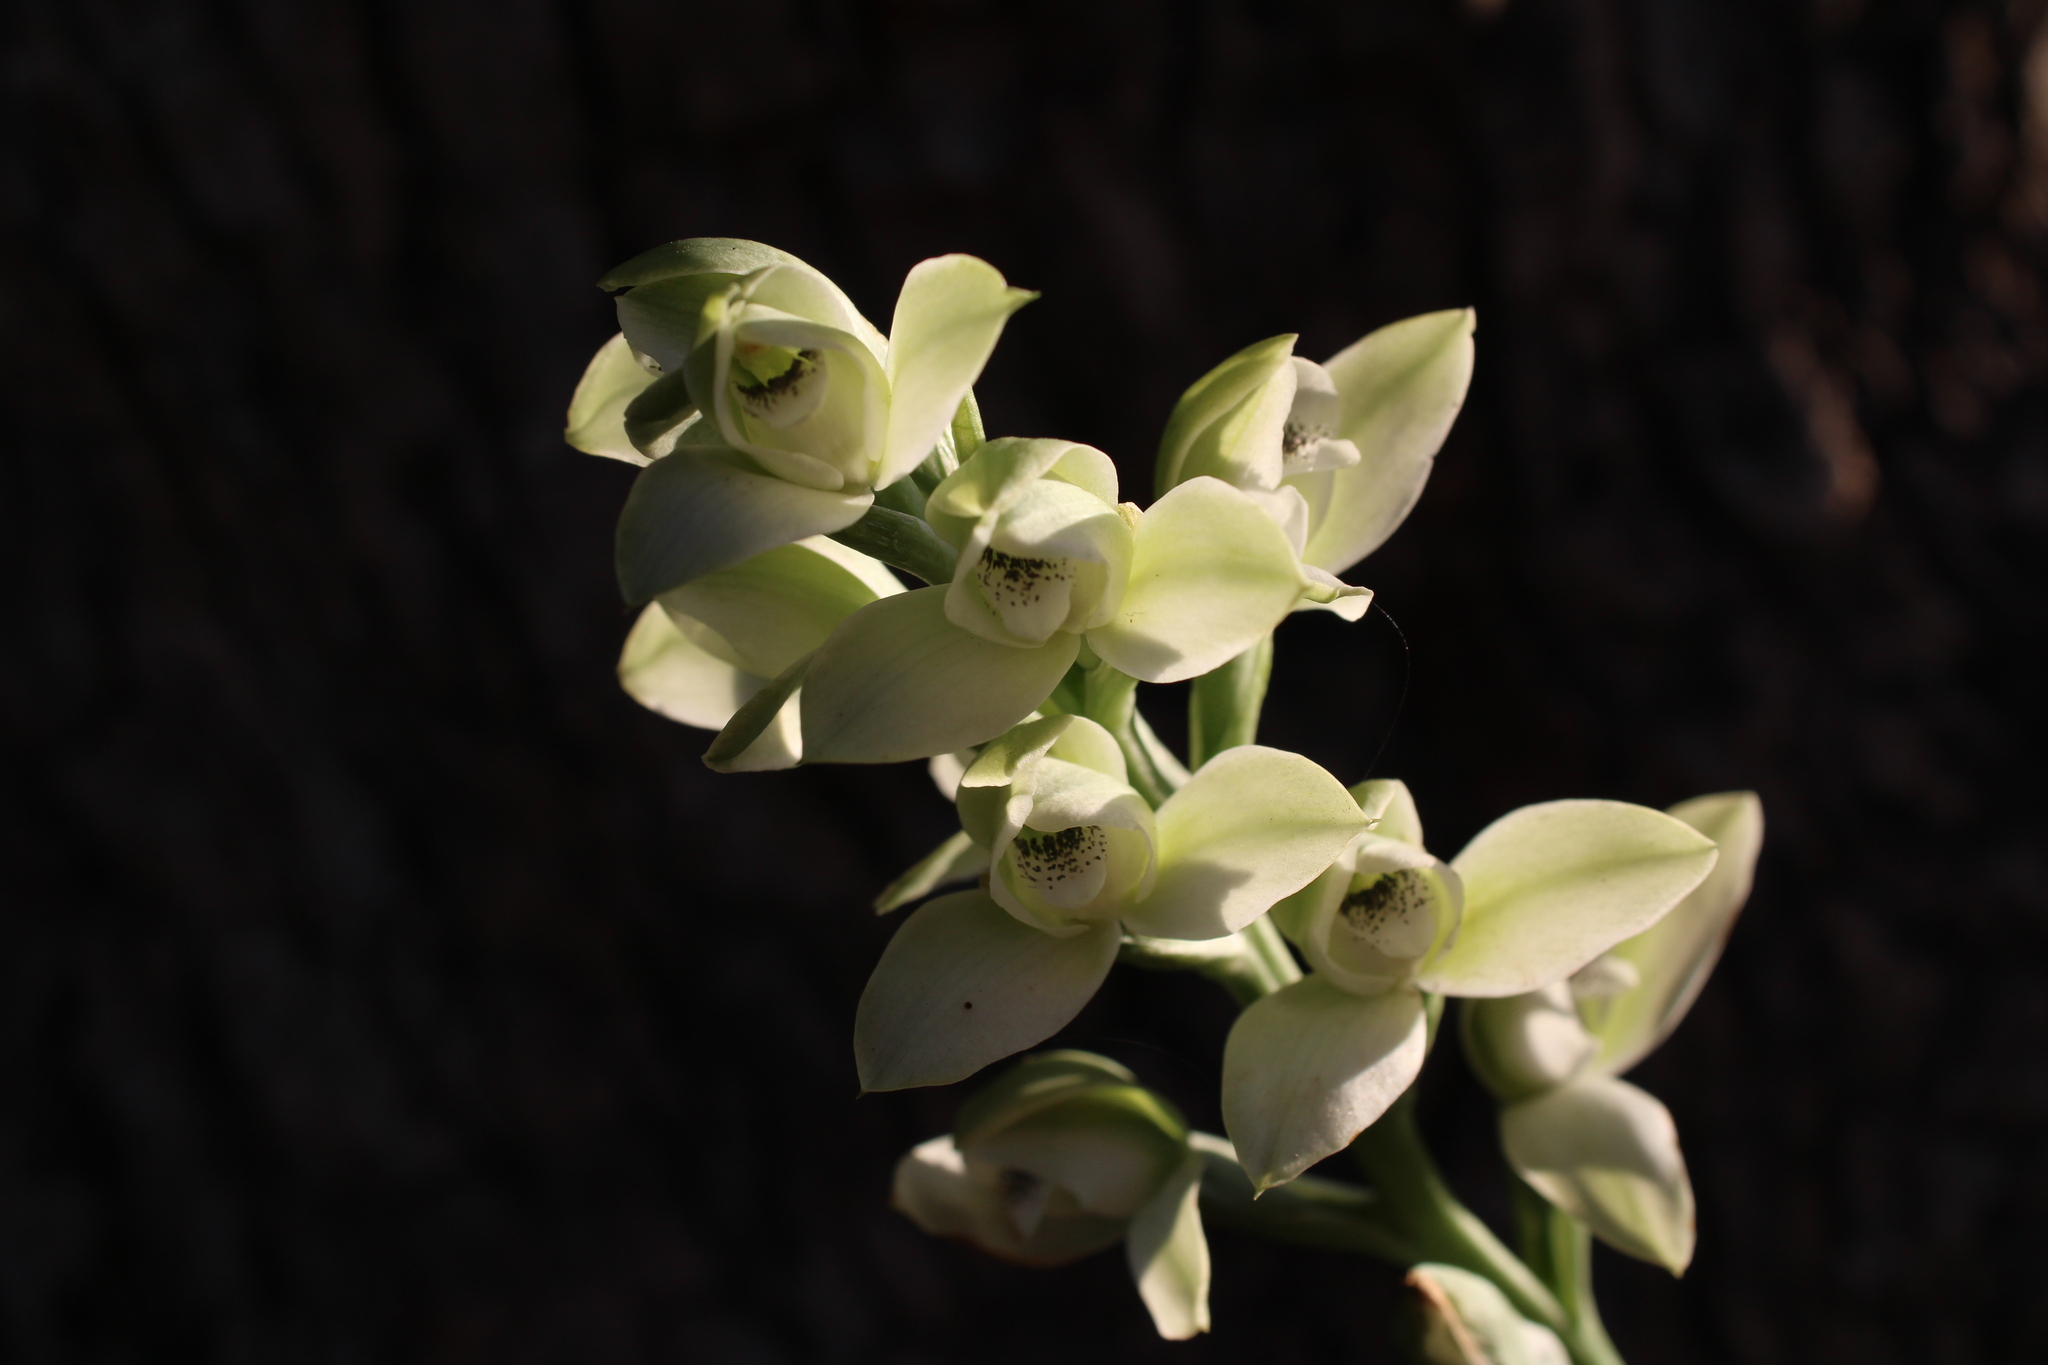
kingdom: Plantae
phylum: Tracheophyta
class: Liliopsida
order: Asparagales
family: Orchidaceae
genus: Chloraea
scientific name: Chloraea membranacea
